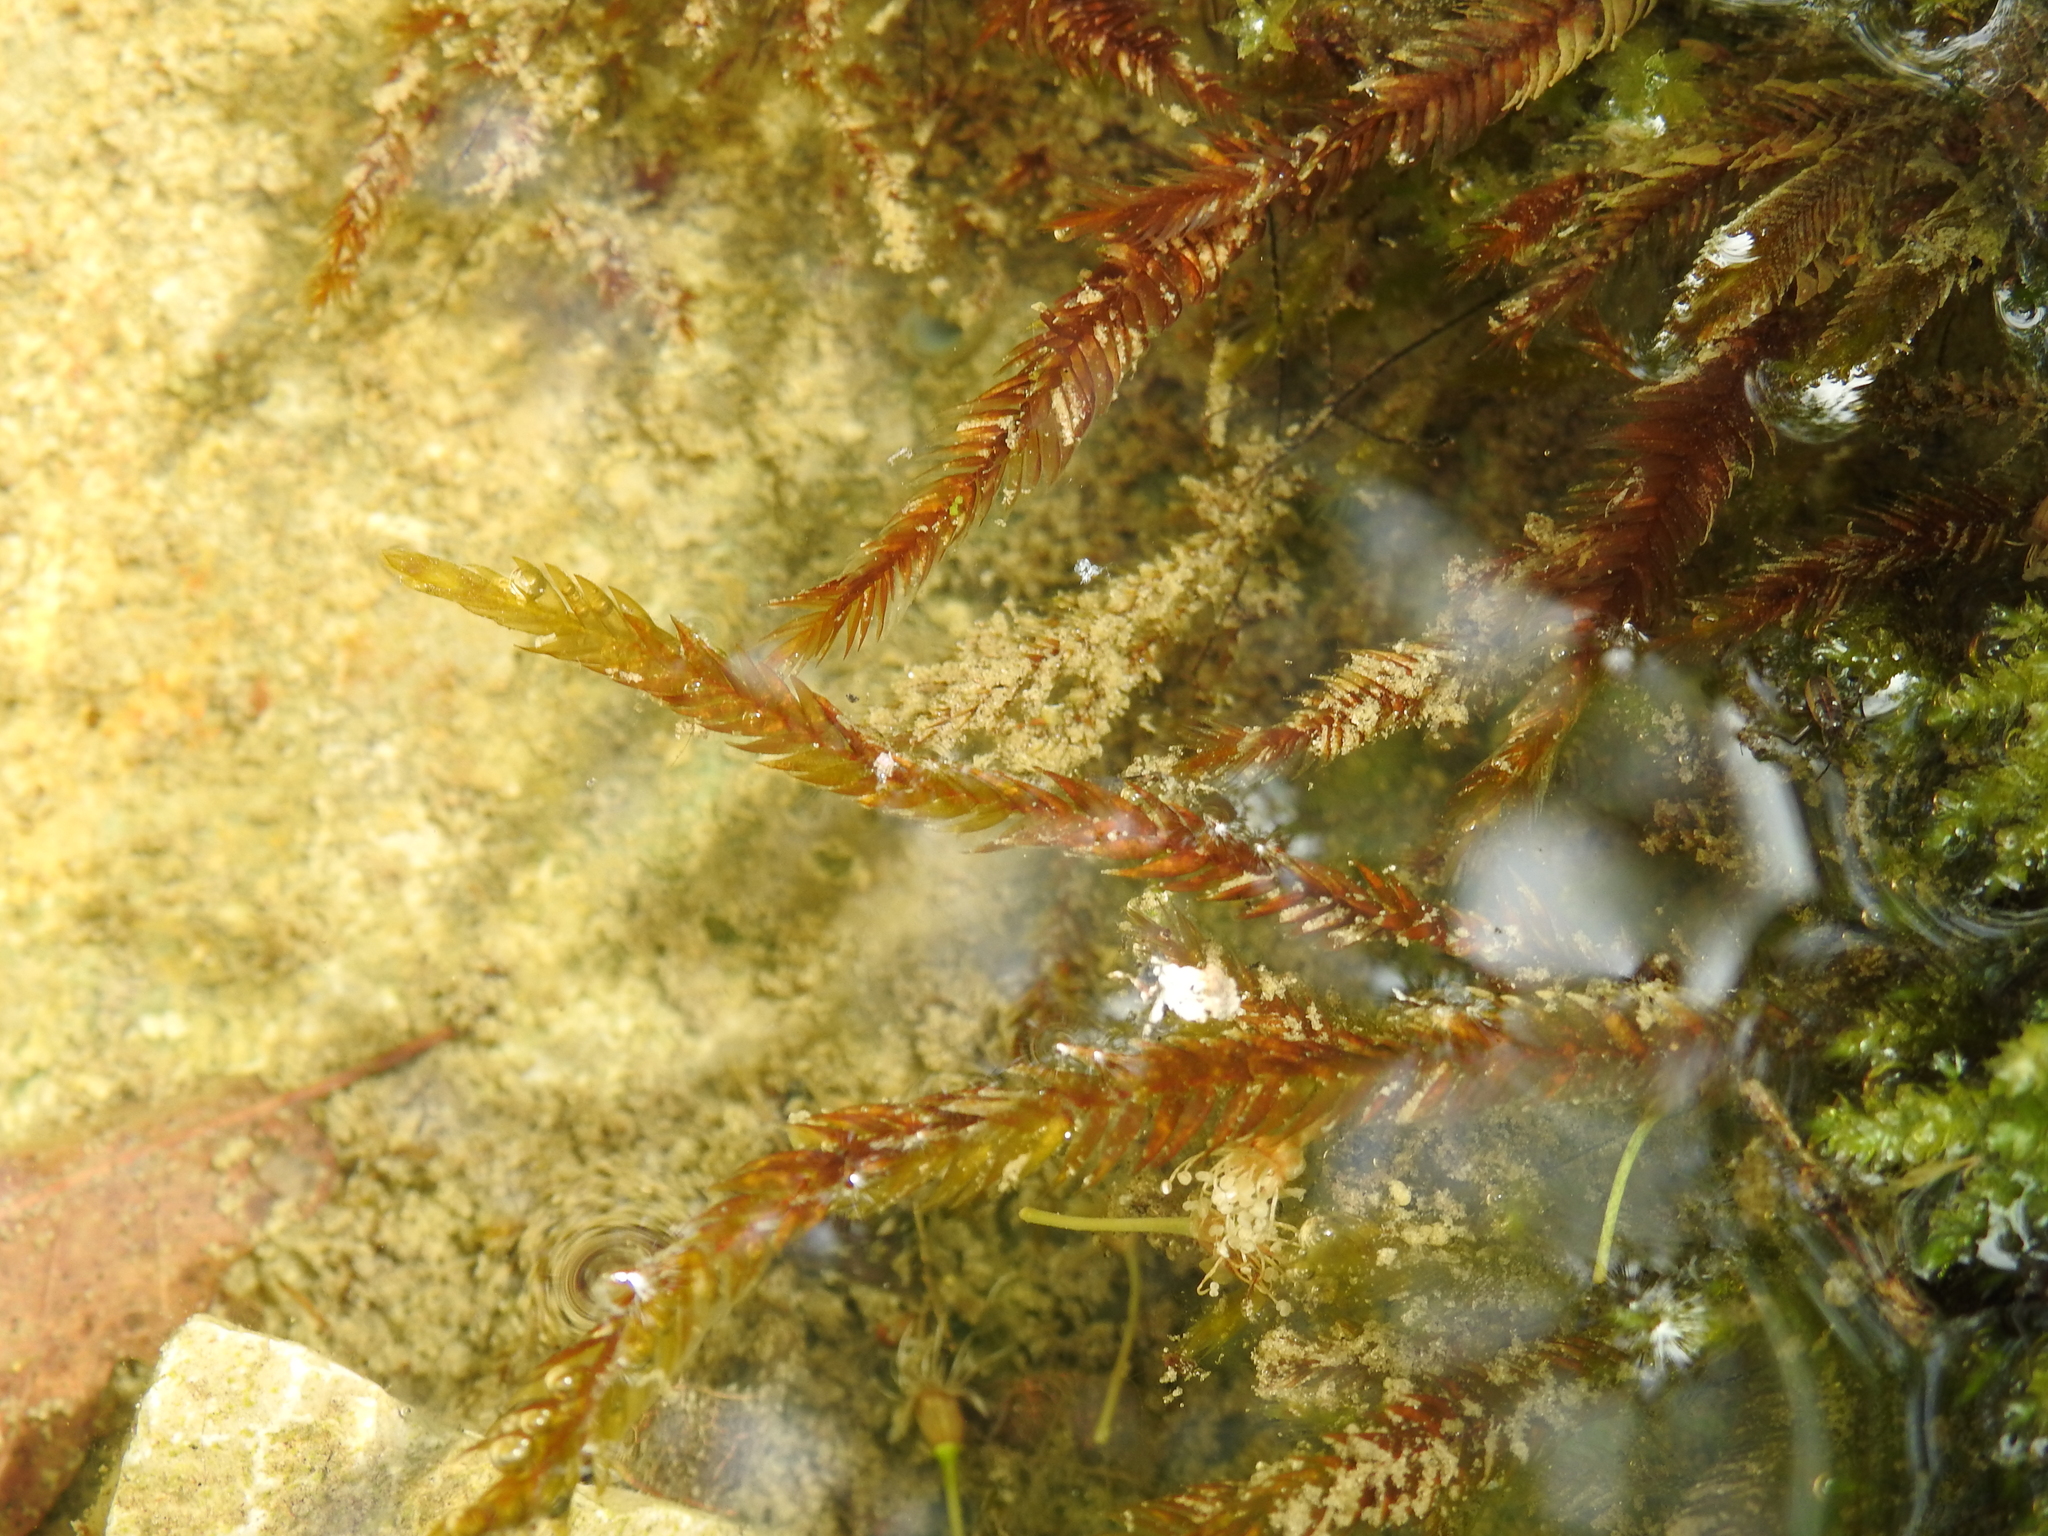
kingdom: Plantae
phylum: Bryophyta
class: Bryopsida
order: Hypnales
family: Fontinalaceae
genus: Fontinalis
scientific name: Fontinalis antipyretica
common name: Greater water-moss
